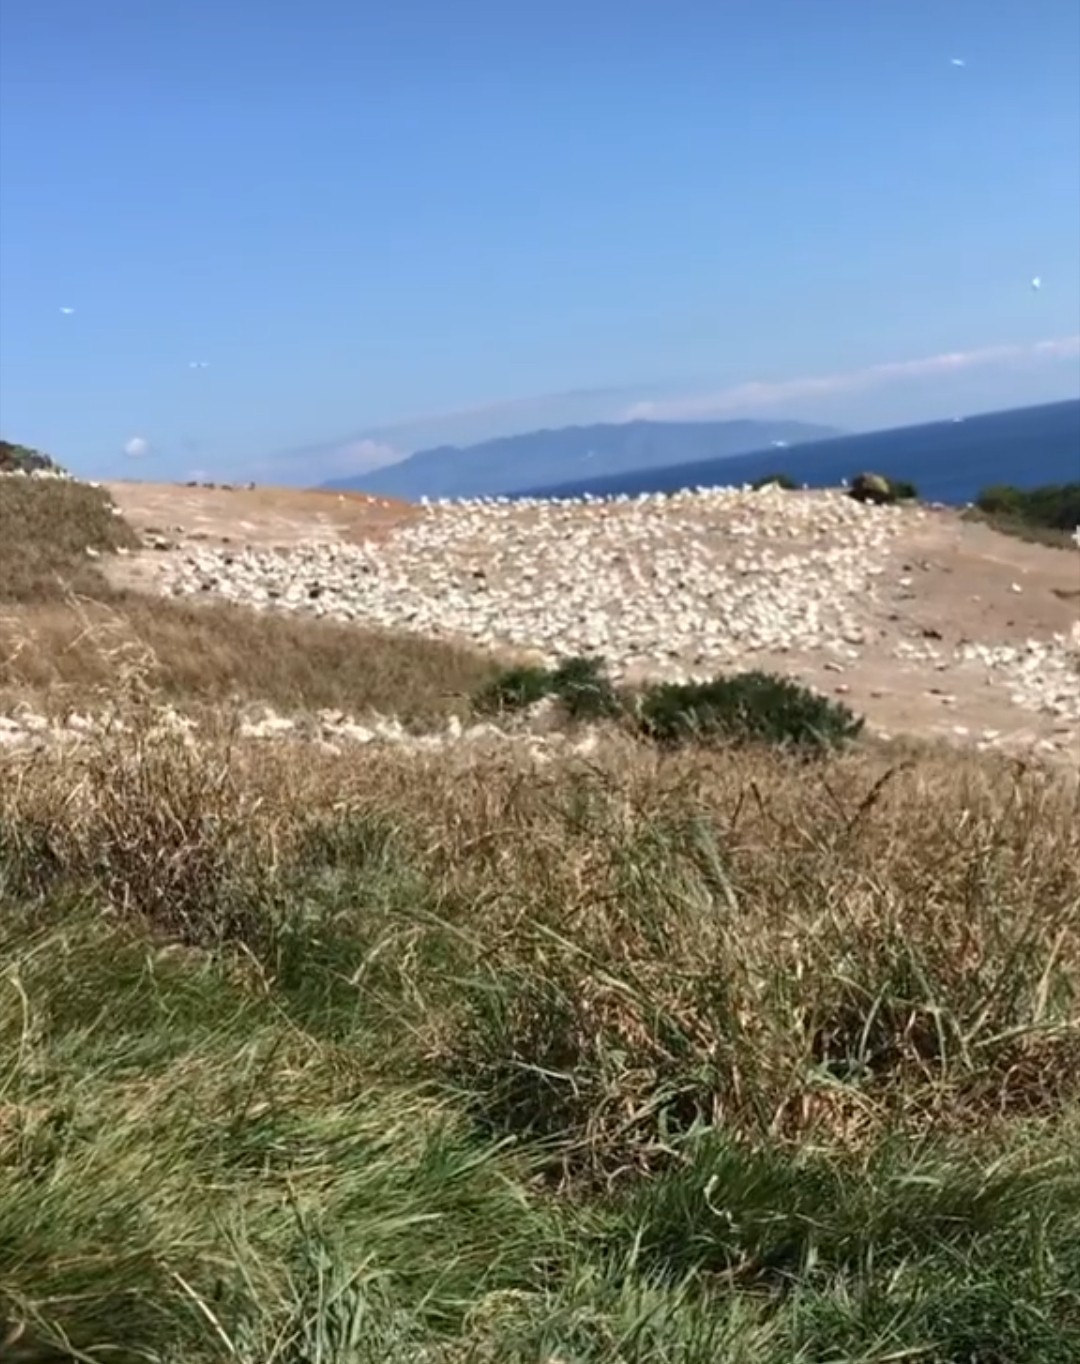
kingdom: Animalia
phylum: Chordata
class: Aves
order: Suliformes
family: Sulidae
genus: Morus
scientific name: Morus serrator
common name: Australasian gannet
